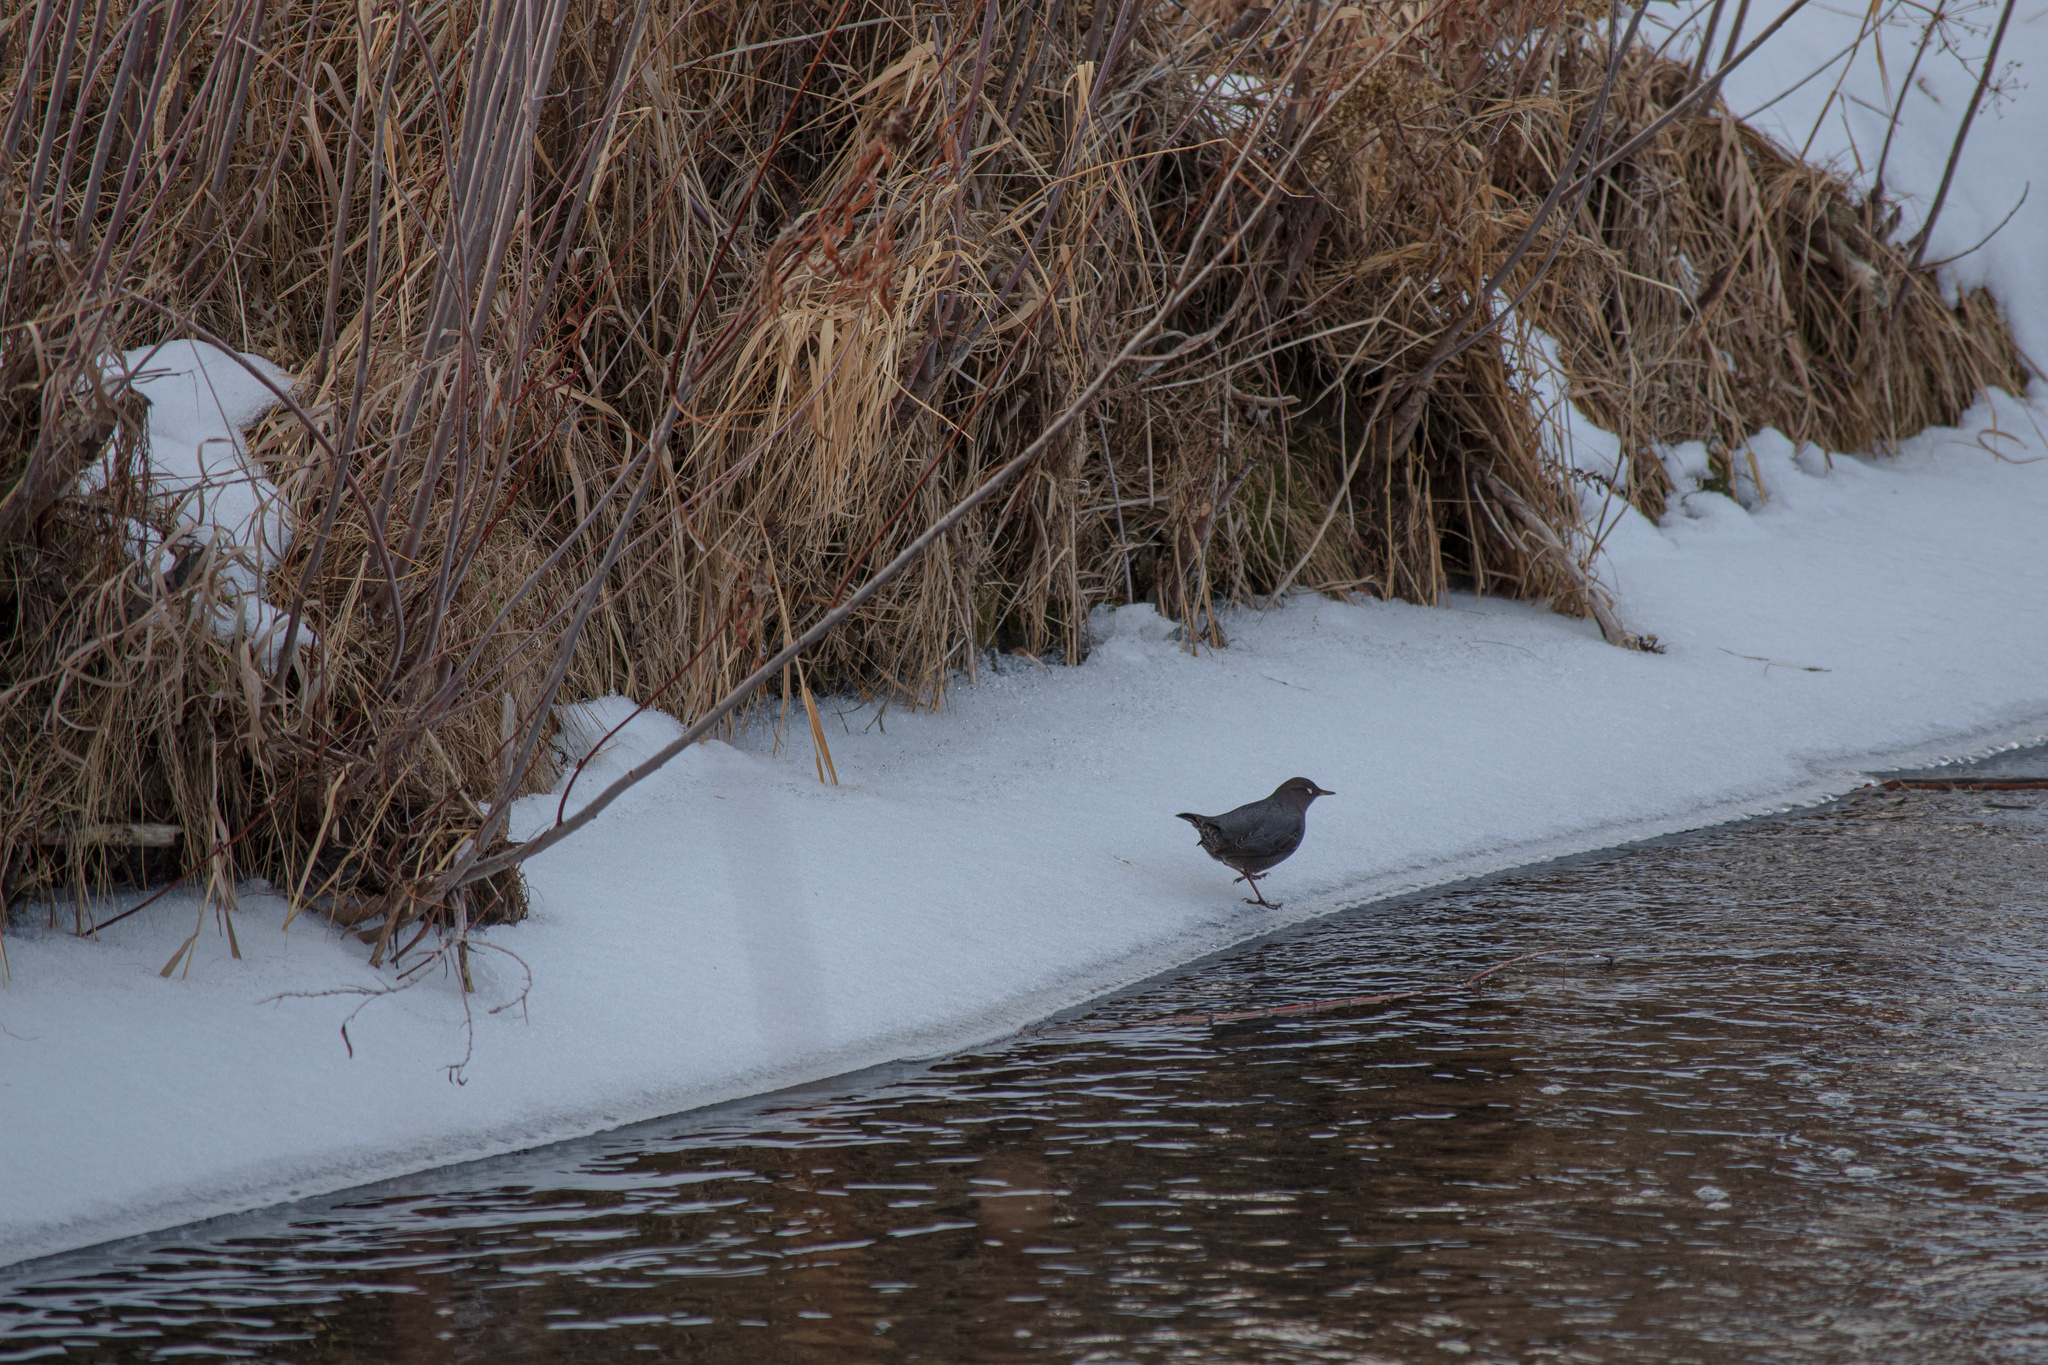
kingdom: Animalia
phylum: Chordata
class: Aves
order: Passeriformes
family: Cinclidae
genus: Cinclus
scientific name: Cinclus mexicanus
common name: American dipper
